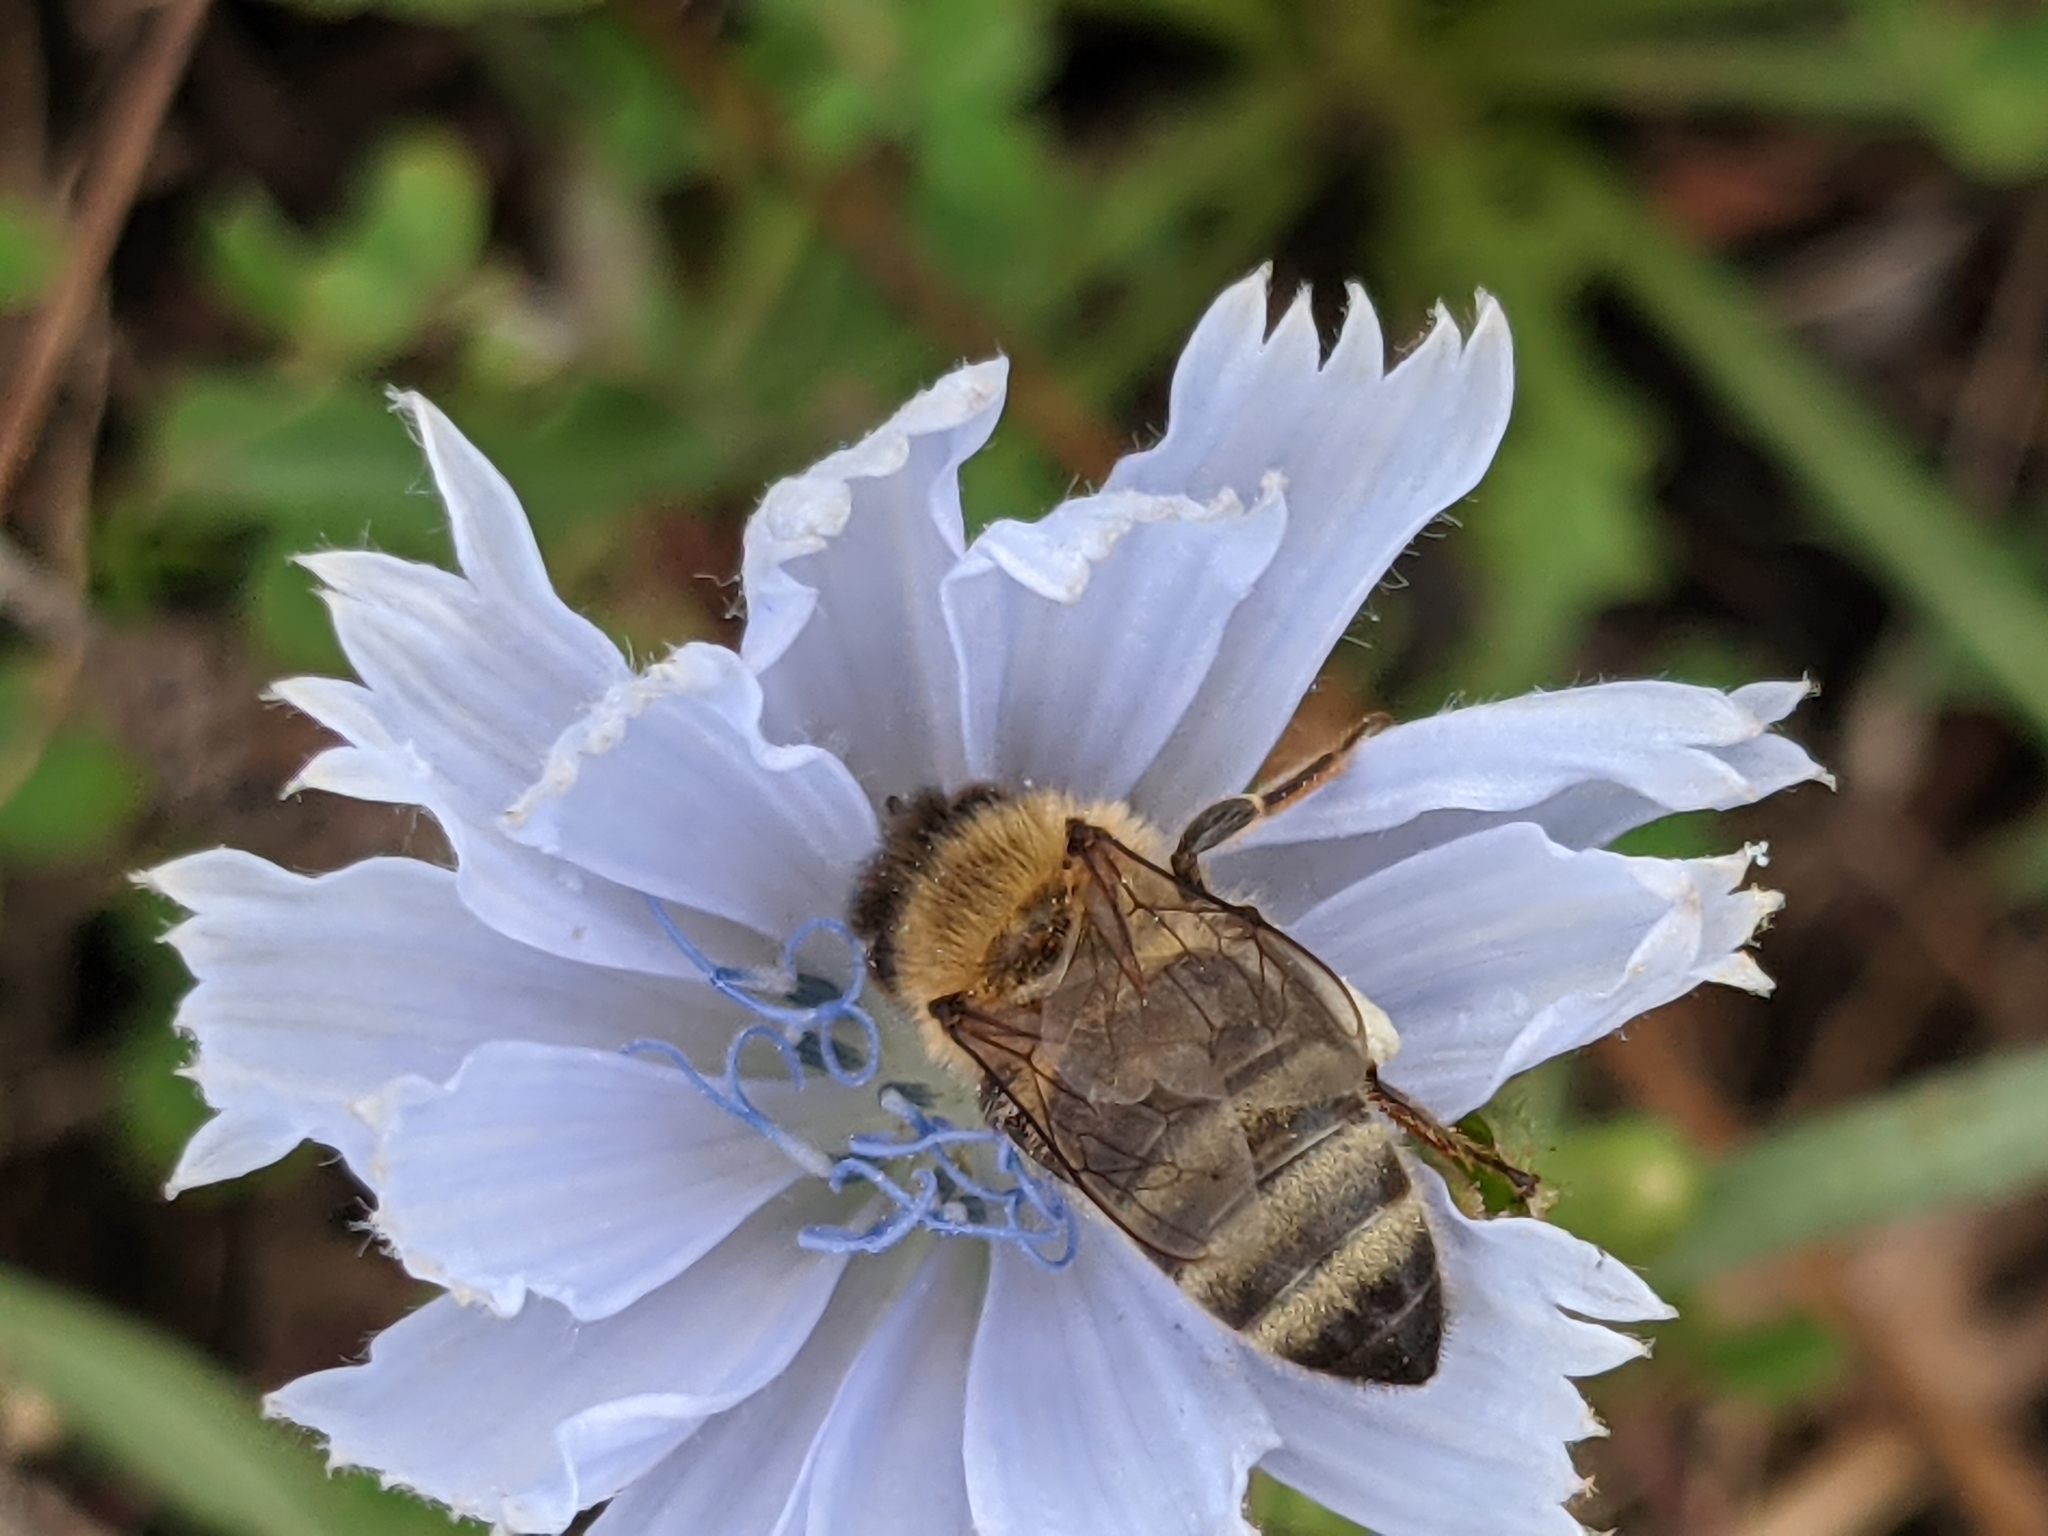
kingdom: Animalia
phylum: Arthropoda
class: Insecta
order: Hymenoptera
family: Apidae
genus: Apis
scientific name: Apis mellifera
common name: Honey bee
